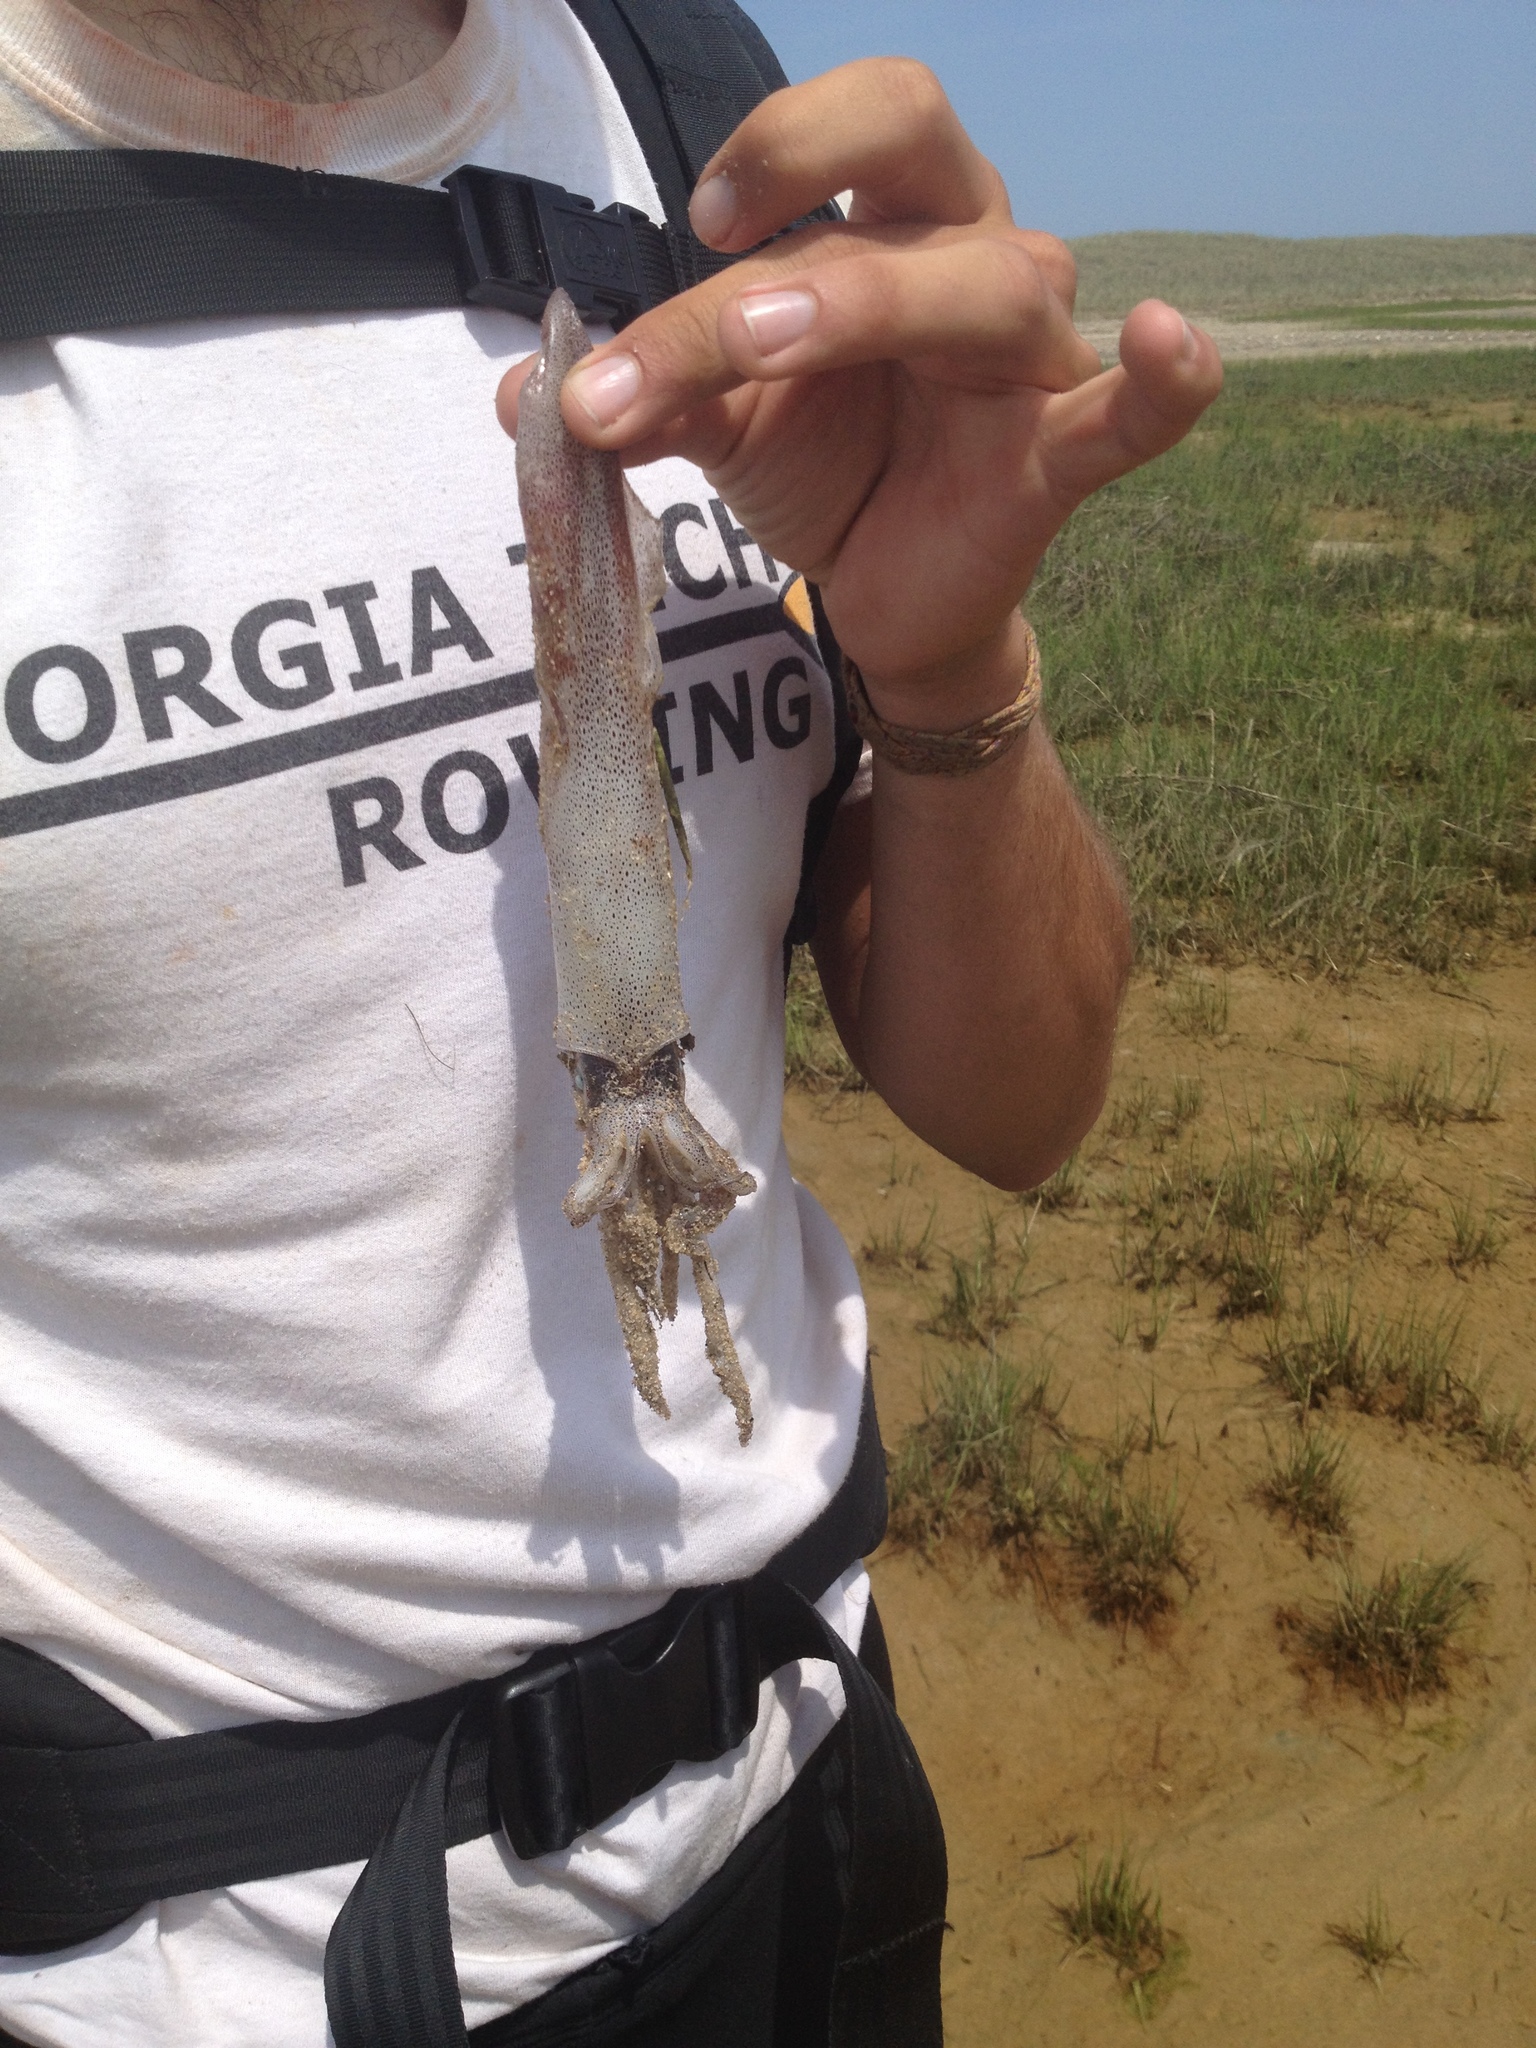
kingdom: Animalia
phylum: Mollusca
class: Cephalopoda
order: Myopsida
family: Loliginidae
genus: Doryteuthis
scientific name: Doryteuthis pealeii
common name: Long-finned inshore squid
